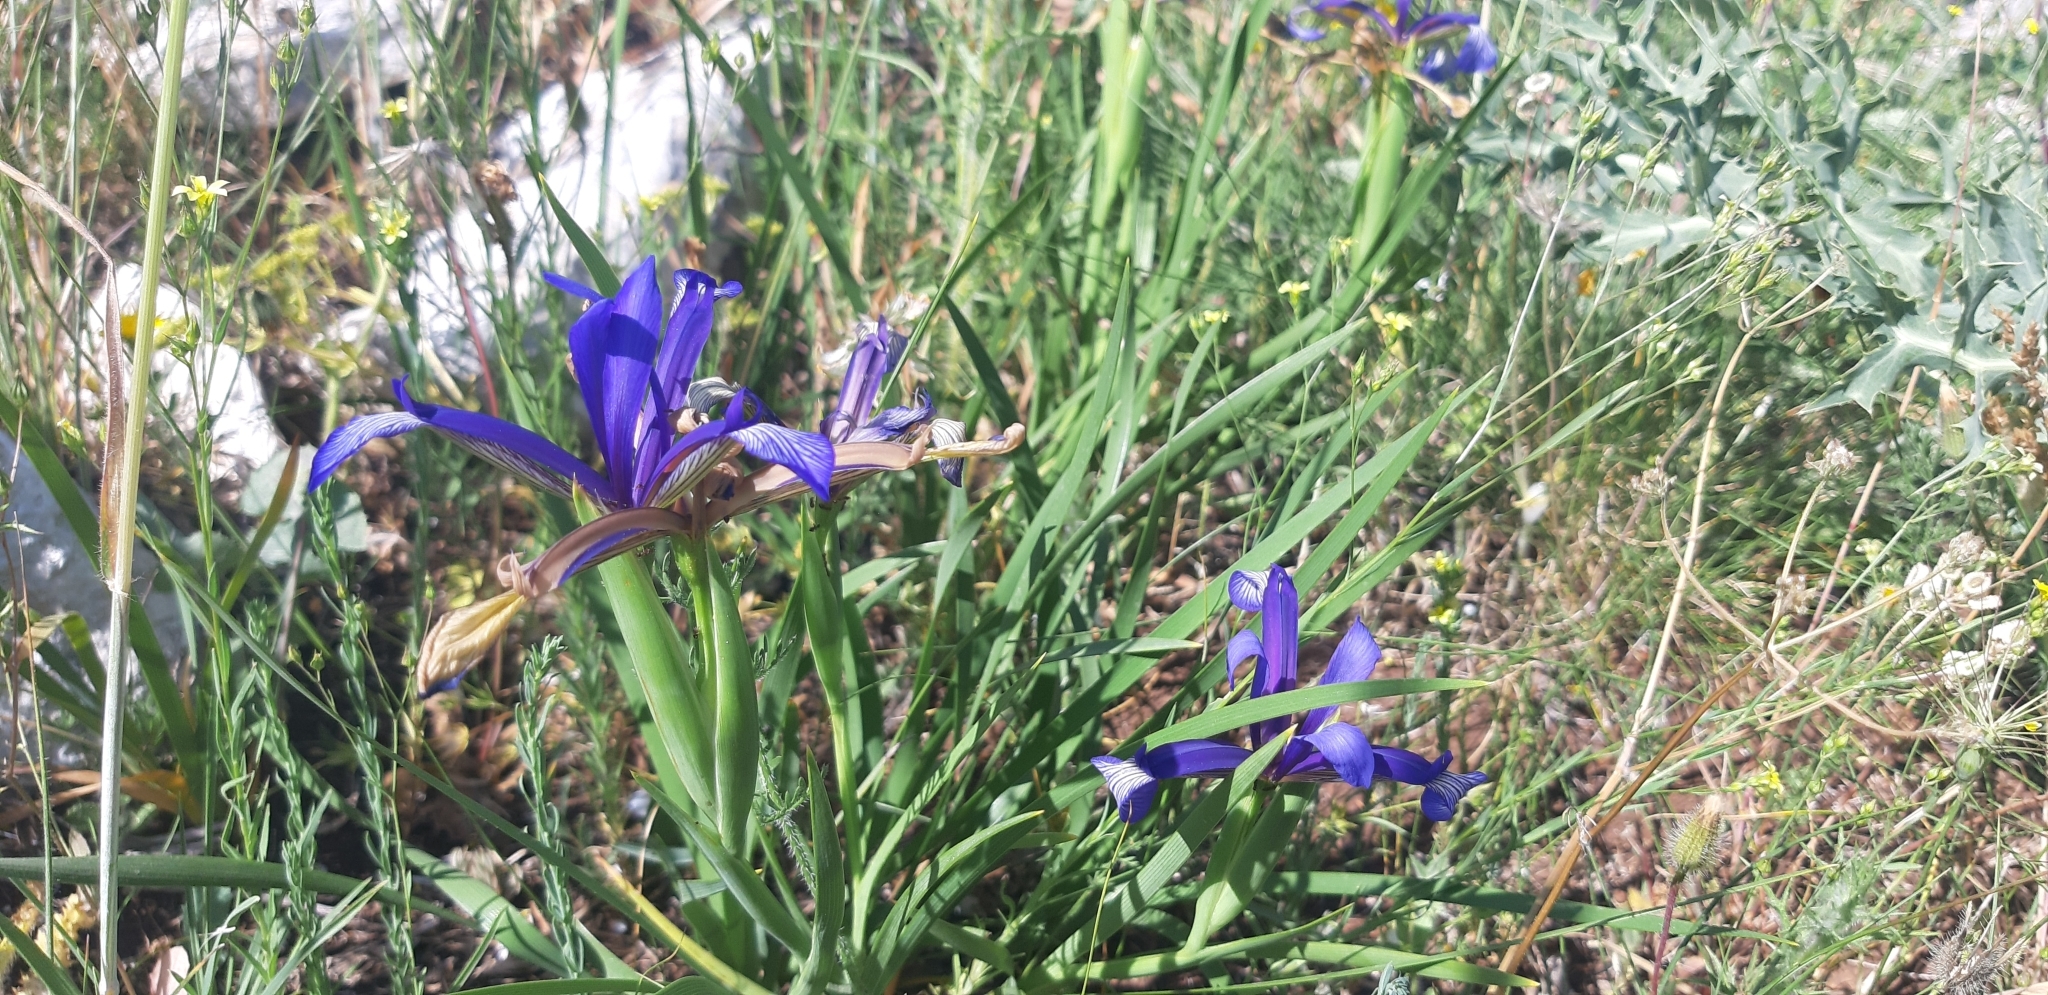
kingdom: Plantae
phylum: Tracheophyta
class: Liliopsida
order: Asparagales
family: Iridaceae
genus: Iris
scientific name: Iris sintenisii
